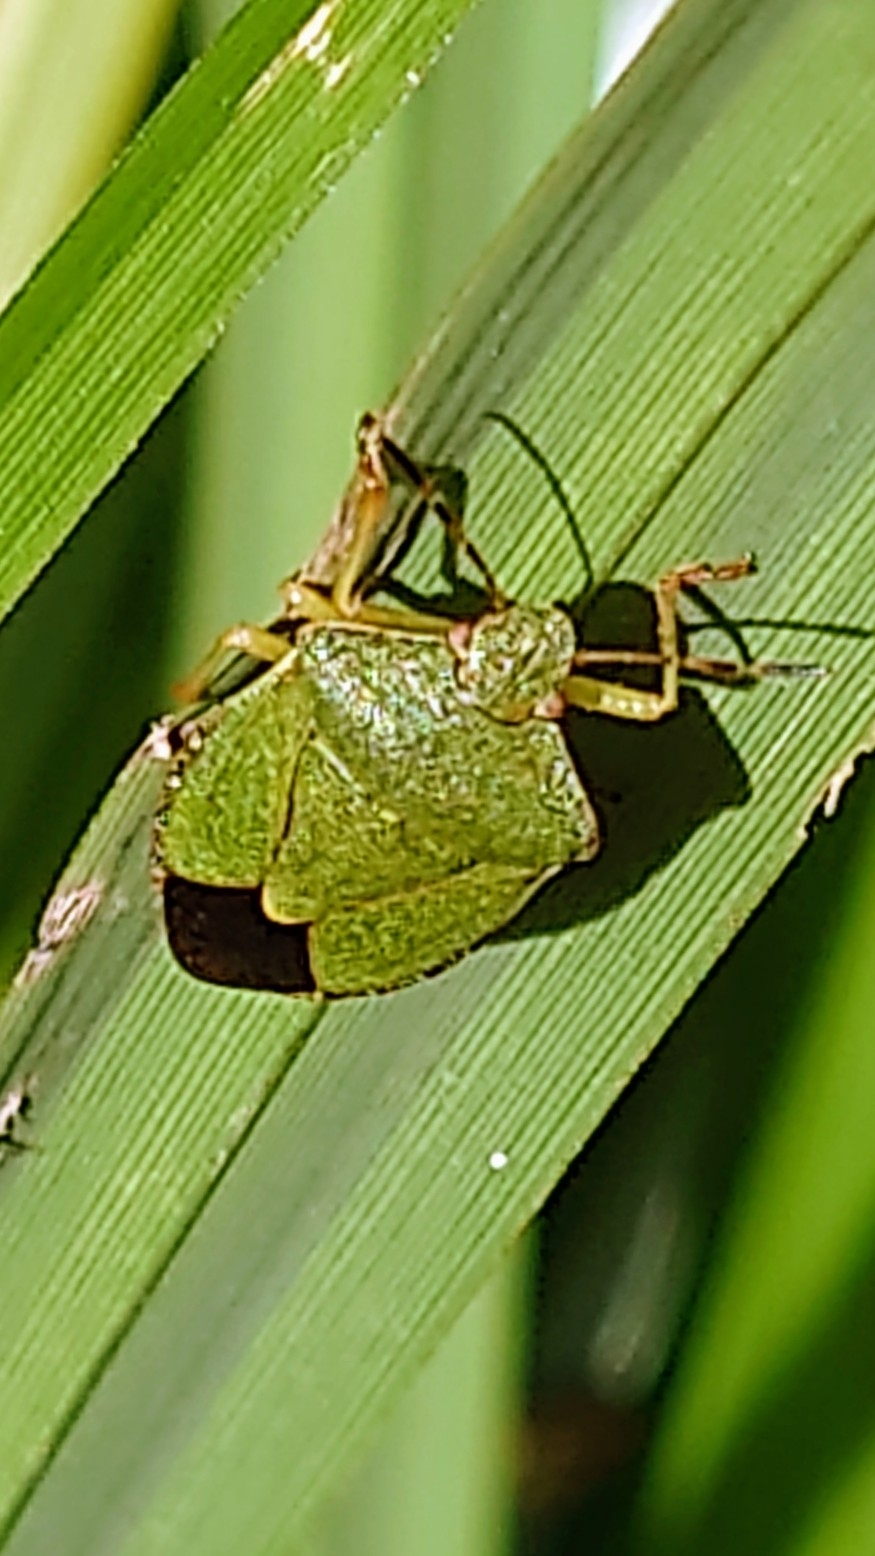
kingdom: Animalia
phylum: Arthropoda
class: Insecta
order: Hemiptera
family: Pentatomidae
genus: Palomena
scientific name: Palomena prasina
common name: Green shieldbug
